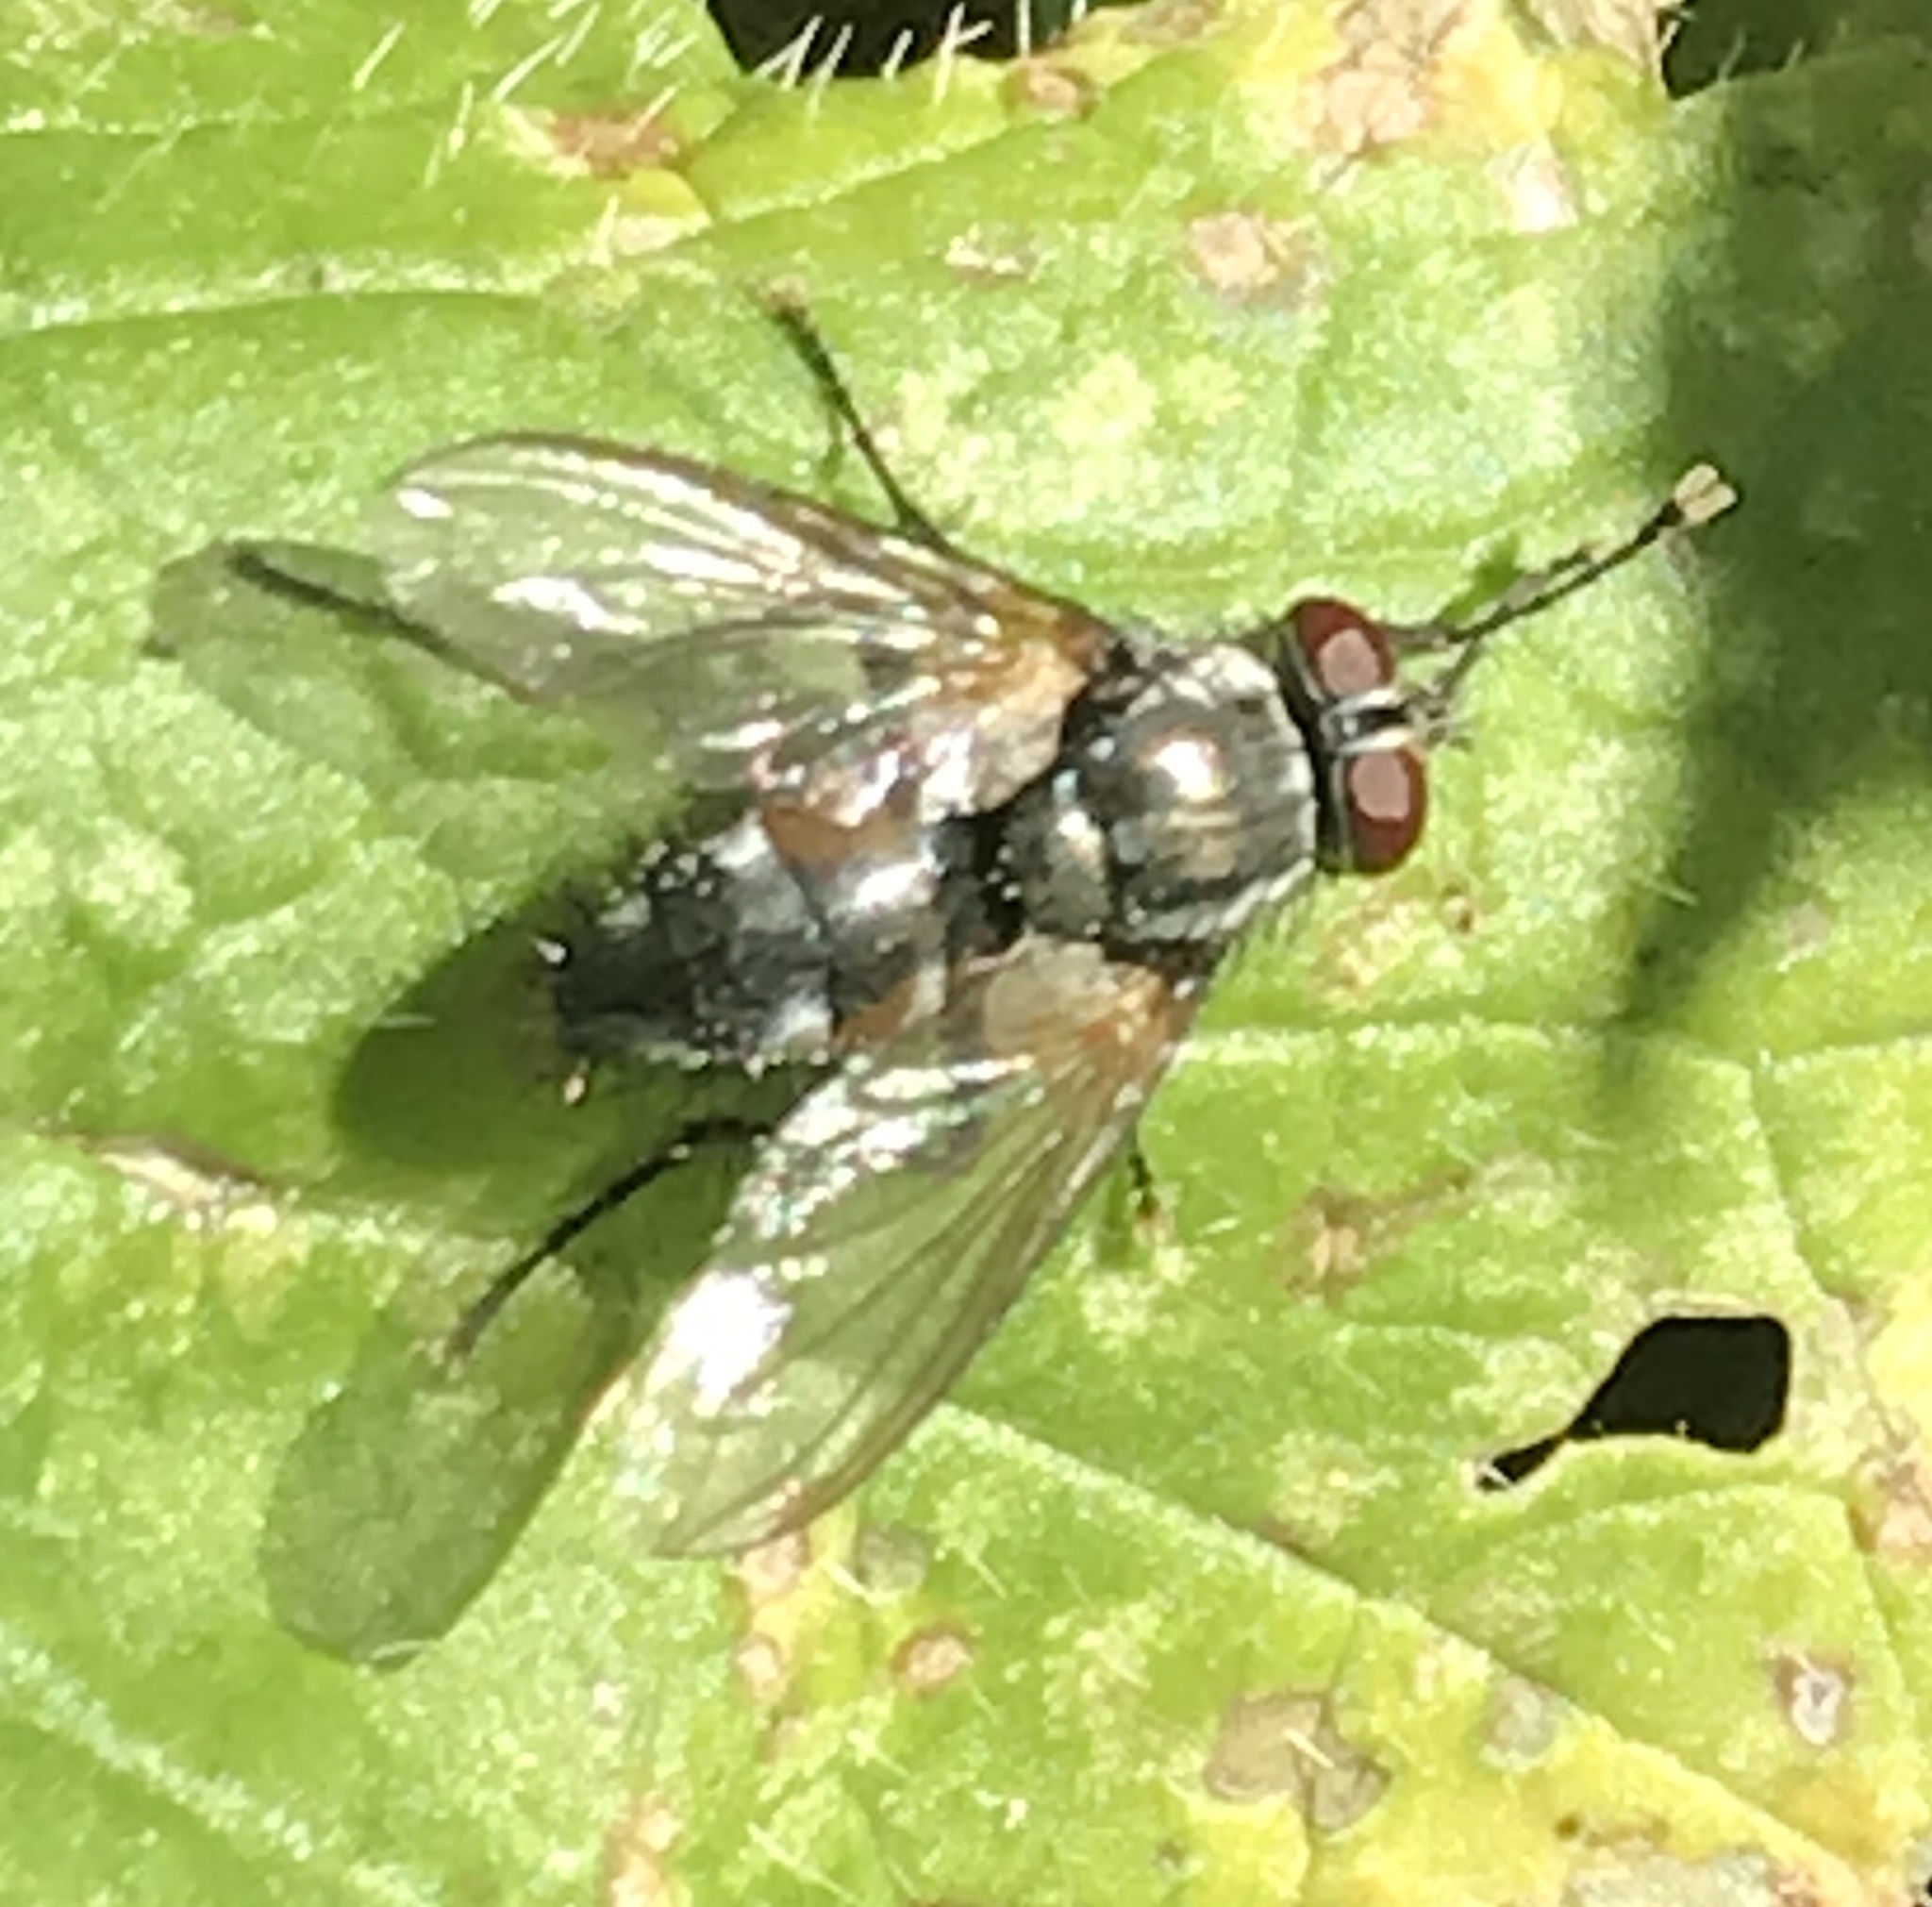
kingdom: Animalia
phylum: Arthropoda
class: Insecta
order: Diptera
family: Tachinidae
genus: Thelaira
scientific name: Thelaira americana
